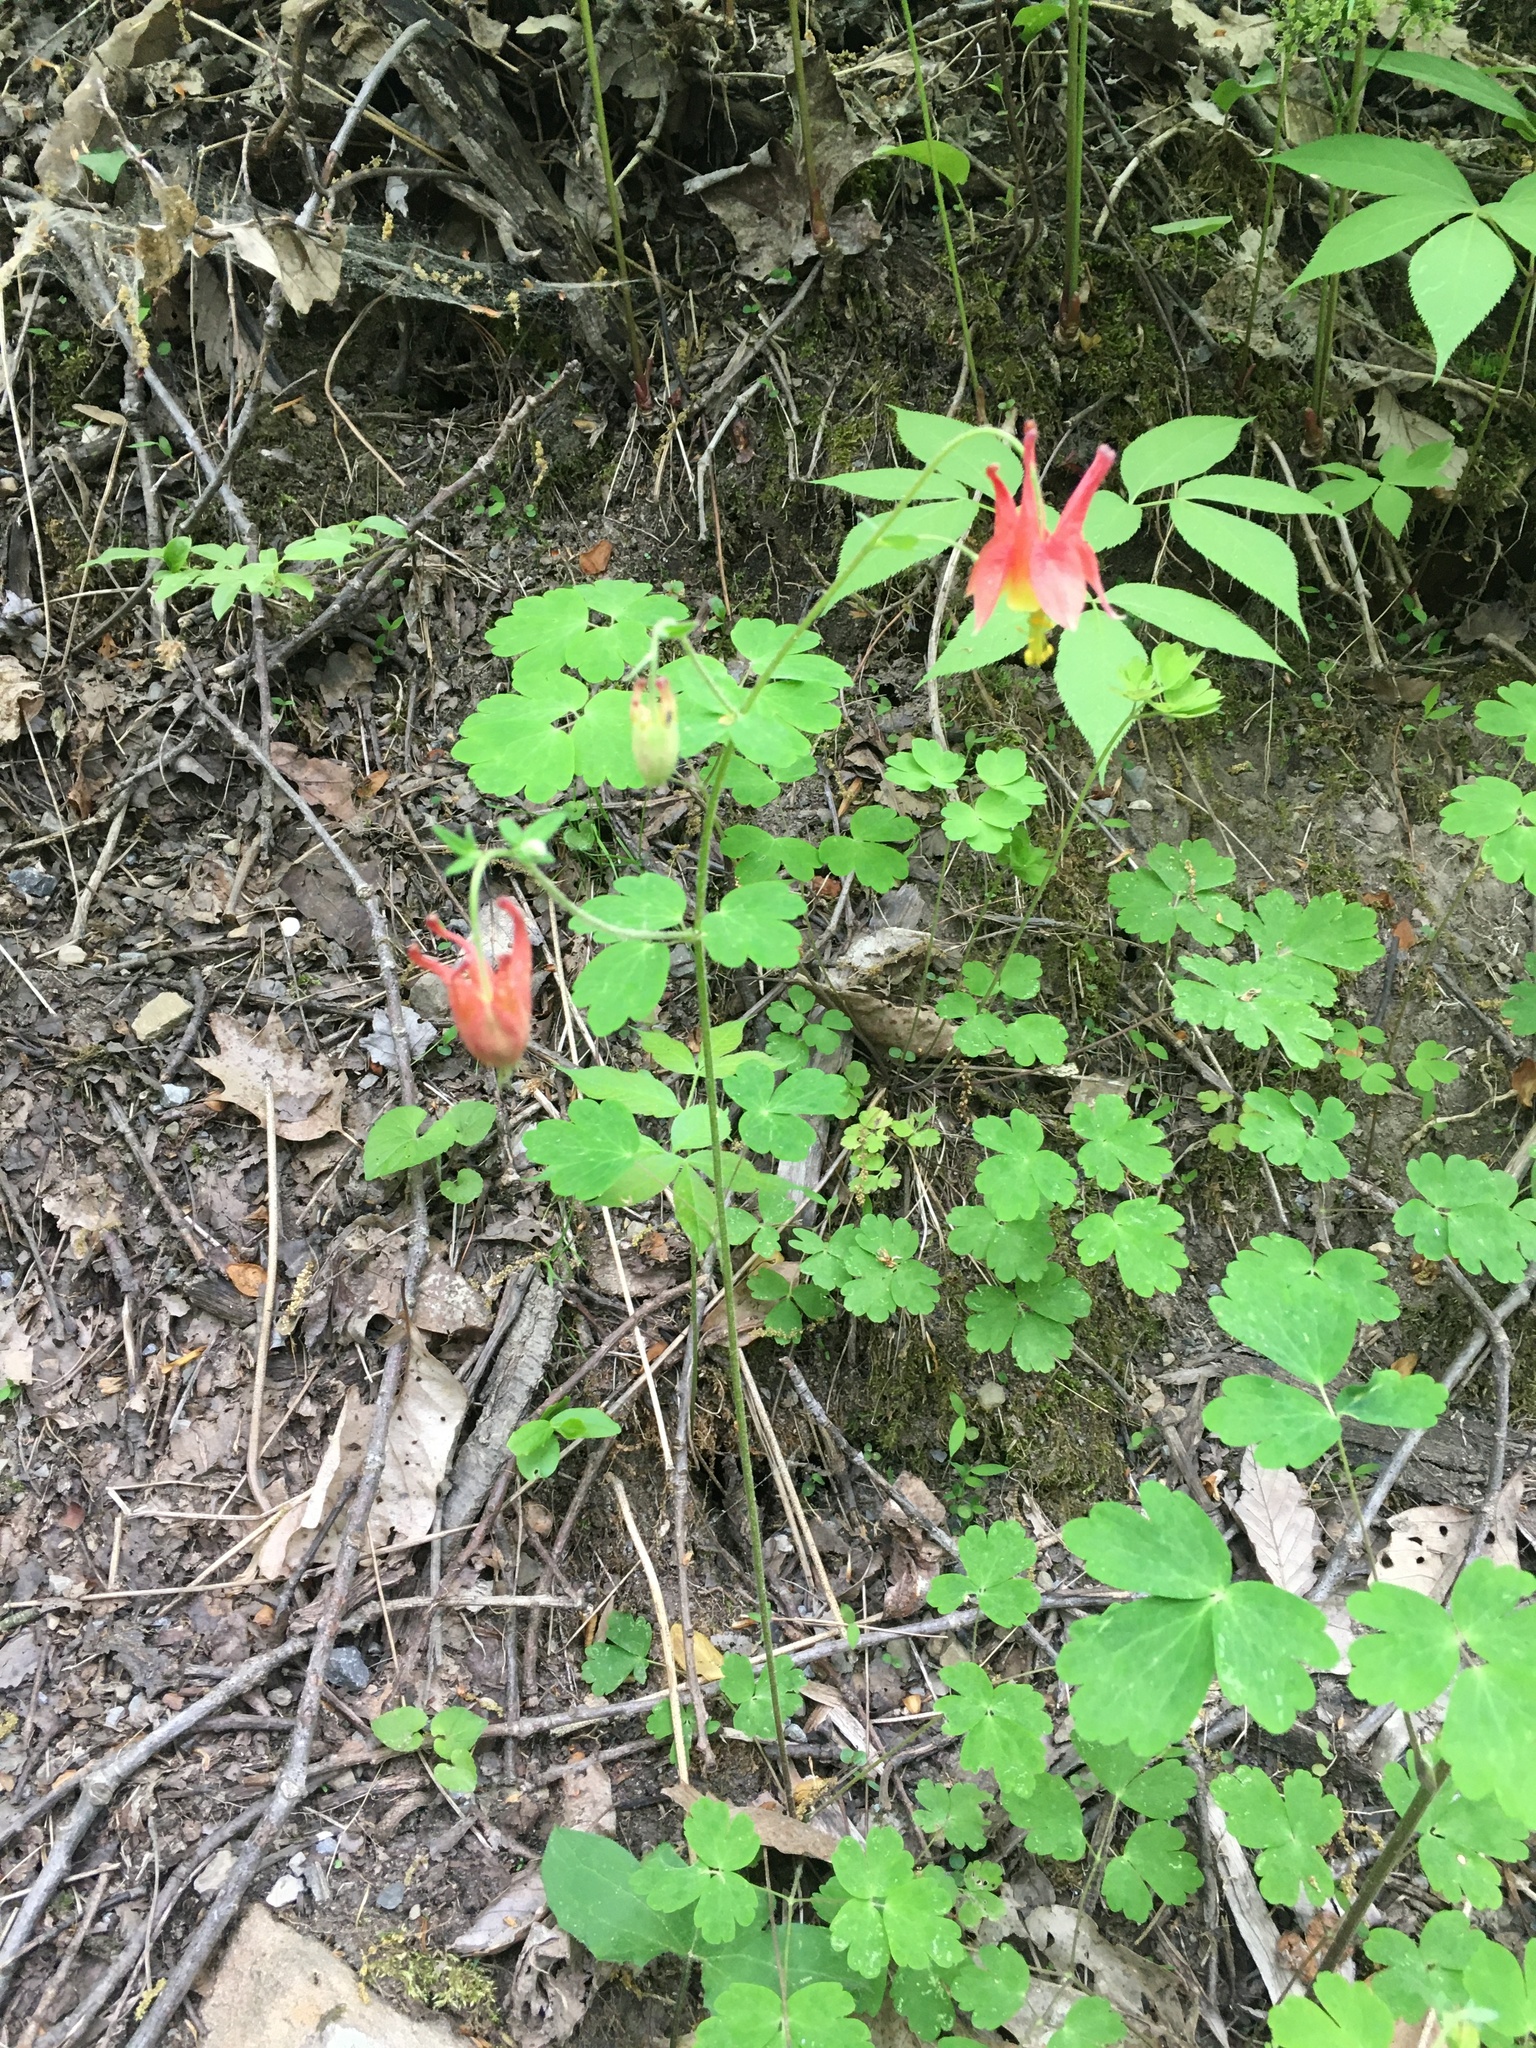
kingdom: Plantae
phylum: Tracheophyta
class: Magnoliopsida
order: Ranunculales
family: Ranunculaceae
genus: Aquilegia
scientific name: Aquilegia canadensis
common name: American columbine
